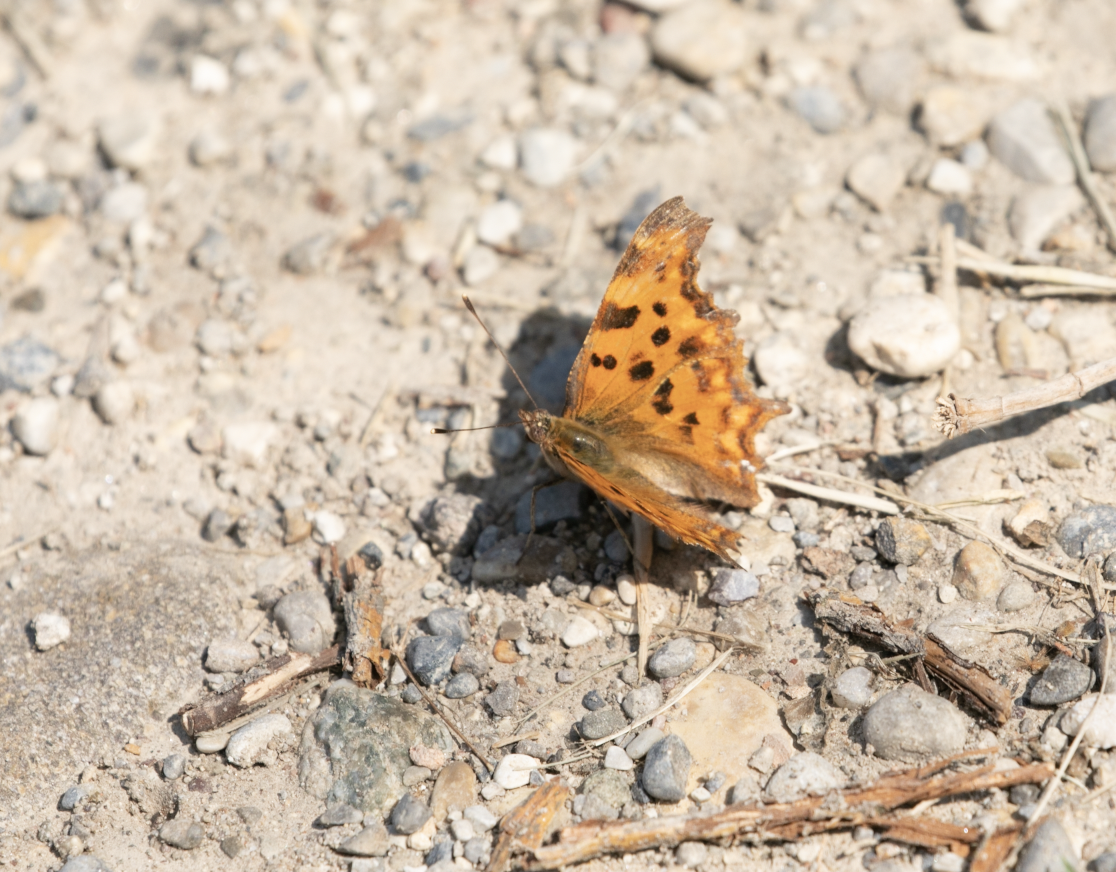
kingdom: Animalia
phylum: Arthropoda
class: Insecta
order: Lepidoptera
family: Nymphalidae
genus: Polygonia
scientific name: Polygonia c-album
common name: Comma
